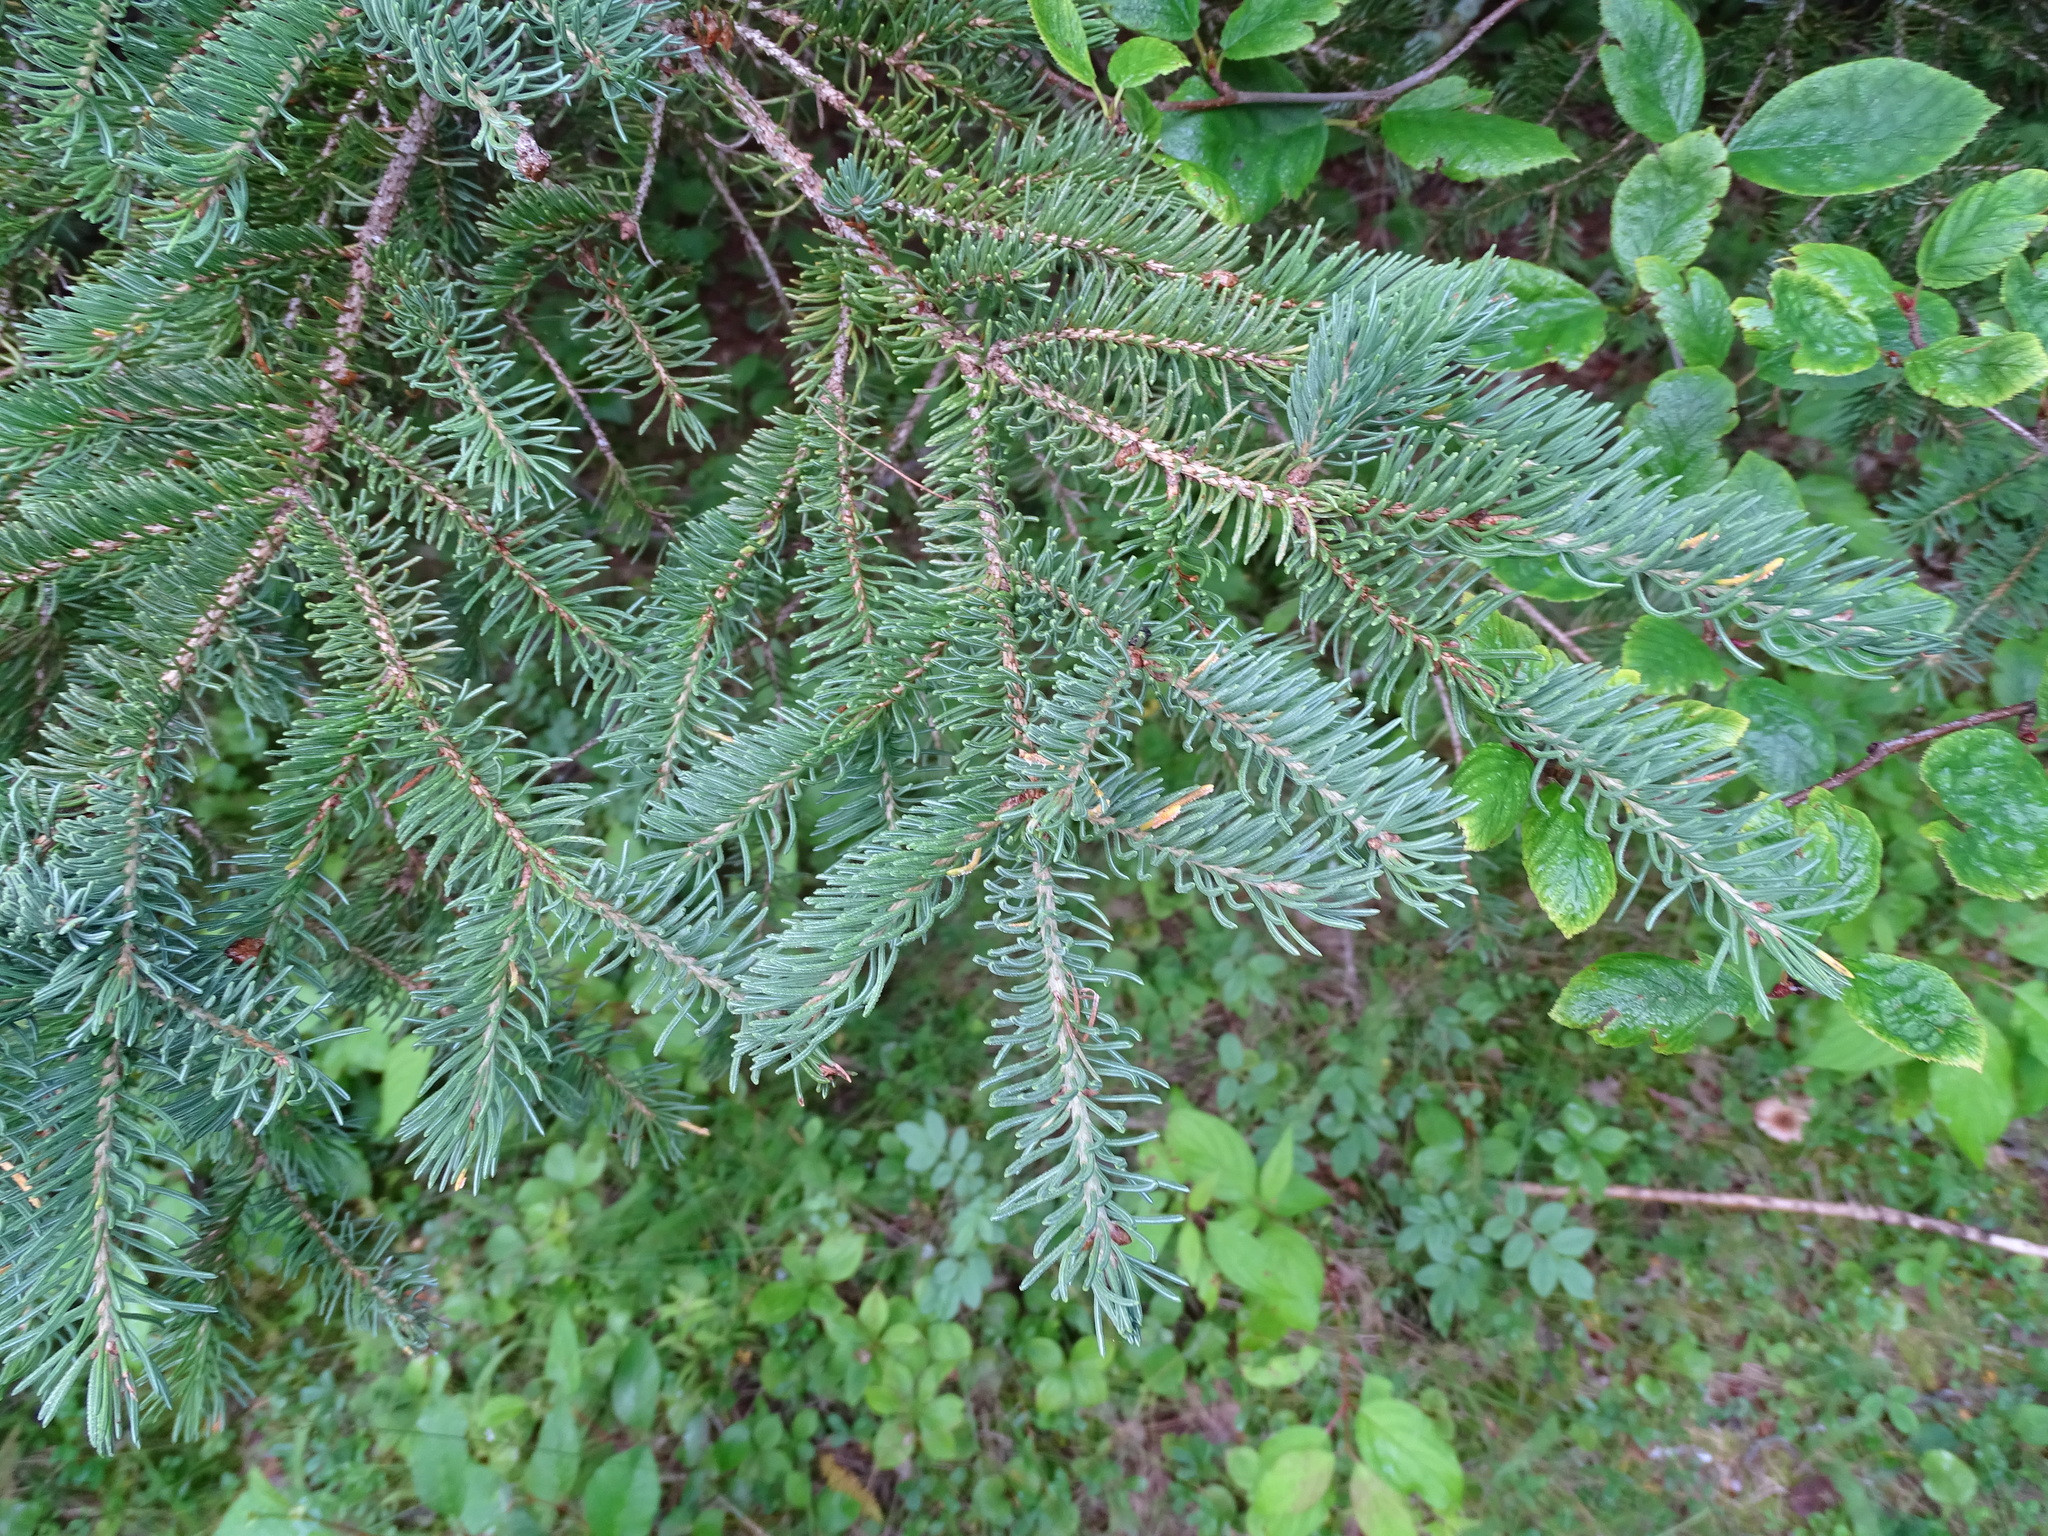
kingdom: Plantae
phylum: Tracheophyta
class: Pinopsida
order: Pinales
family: Pinaceae
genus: Picea
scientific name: Picea glauca
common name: White spruce
